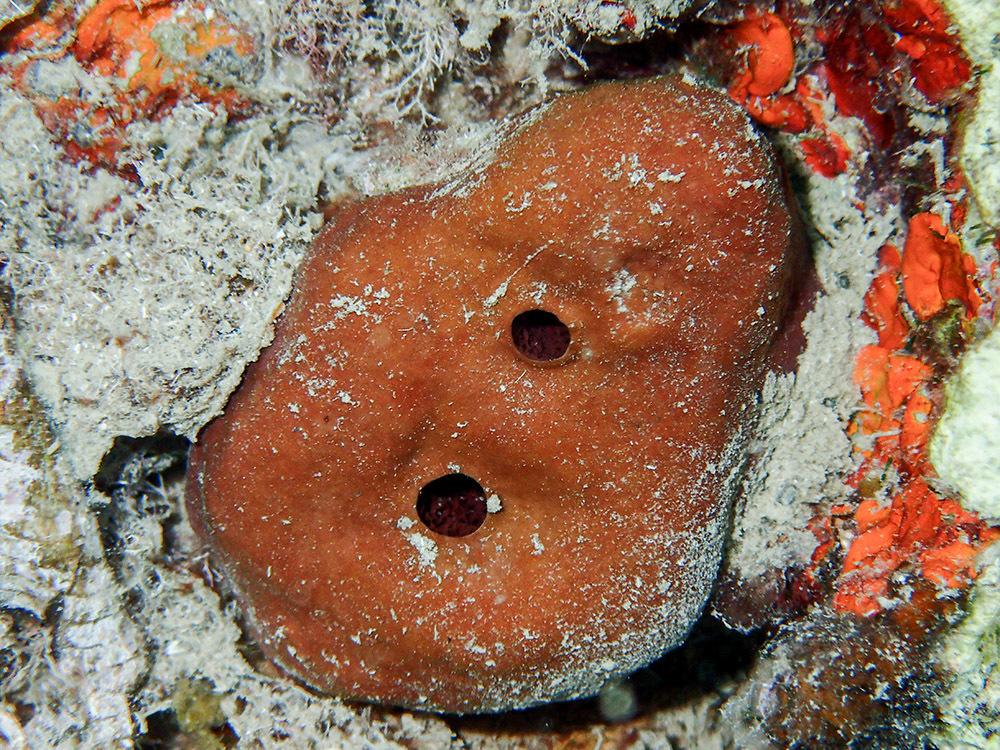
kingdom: Animalia
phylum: Porifera
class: Demospongiae
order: Haplosclerida
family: Petrosiidae
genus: Petrosia
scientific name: Petrosia ficiformis
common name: Stony sponge
